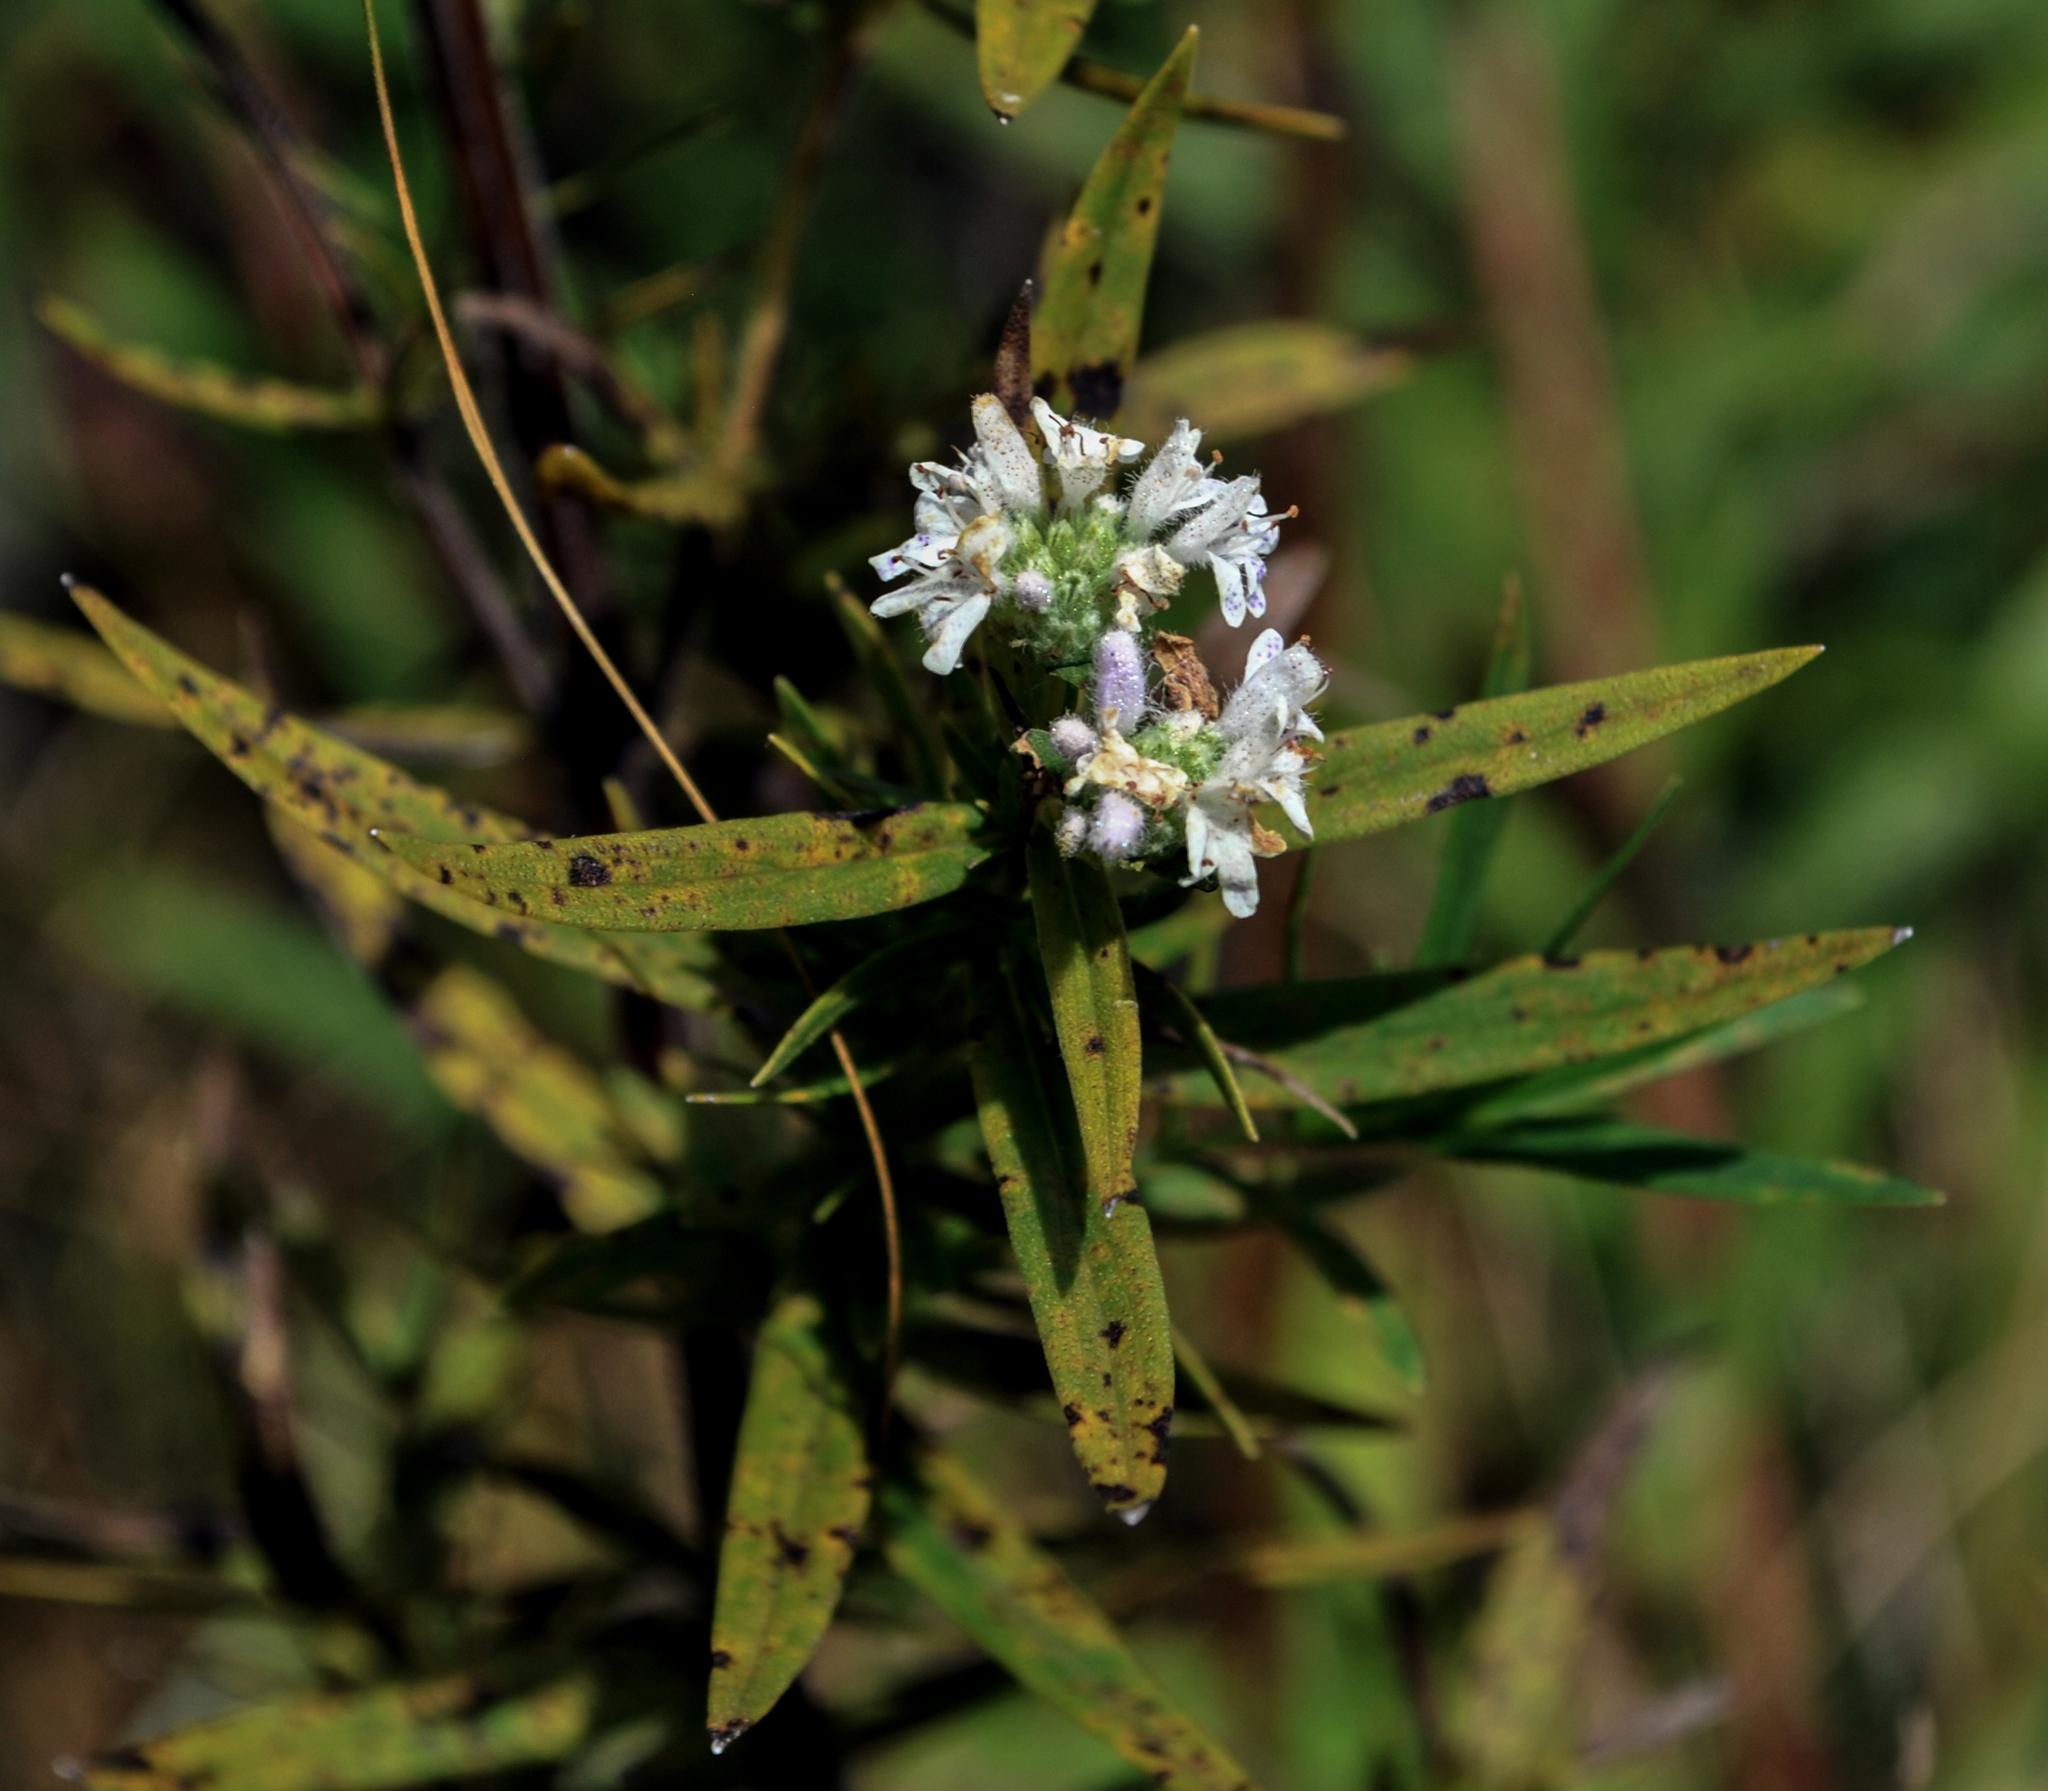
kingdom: Plantae
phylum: Tracheophyta
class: Magnoliopsida
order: Lamiales
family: Lamiaceae
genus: Pycnanthemum
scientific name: Pycnanthemum virginianum
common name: Virginia mountain-mint
